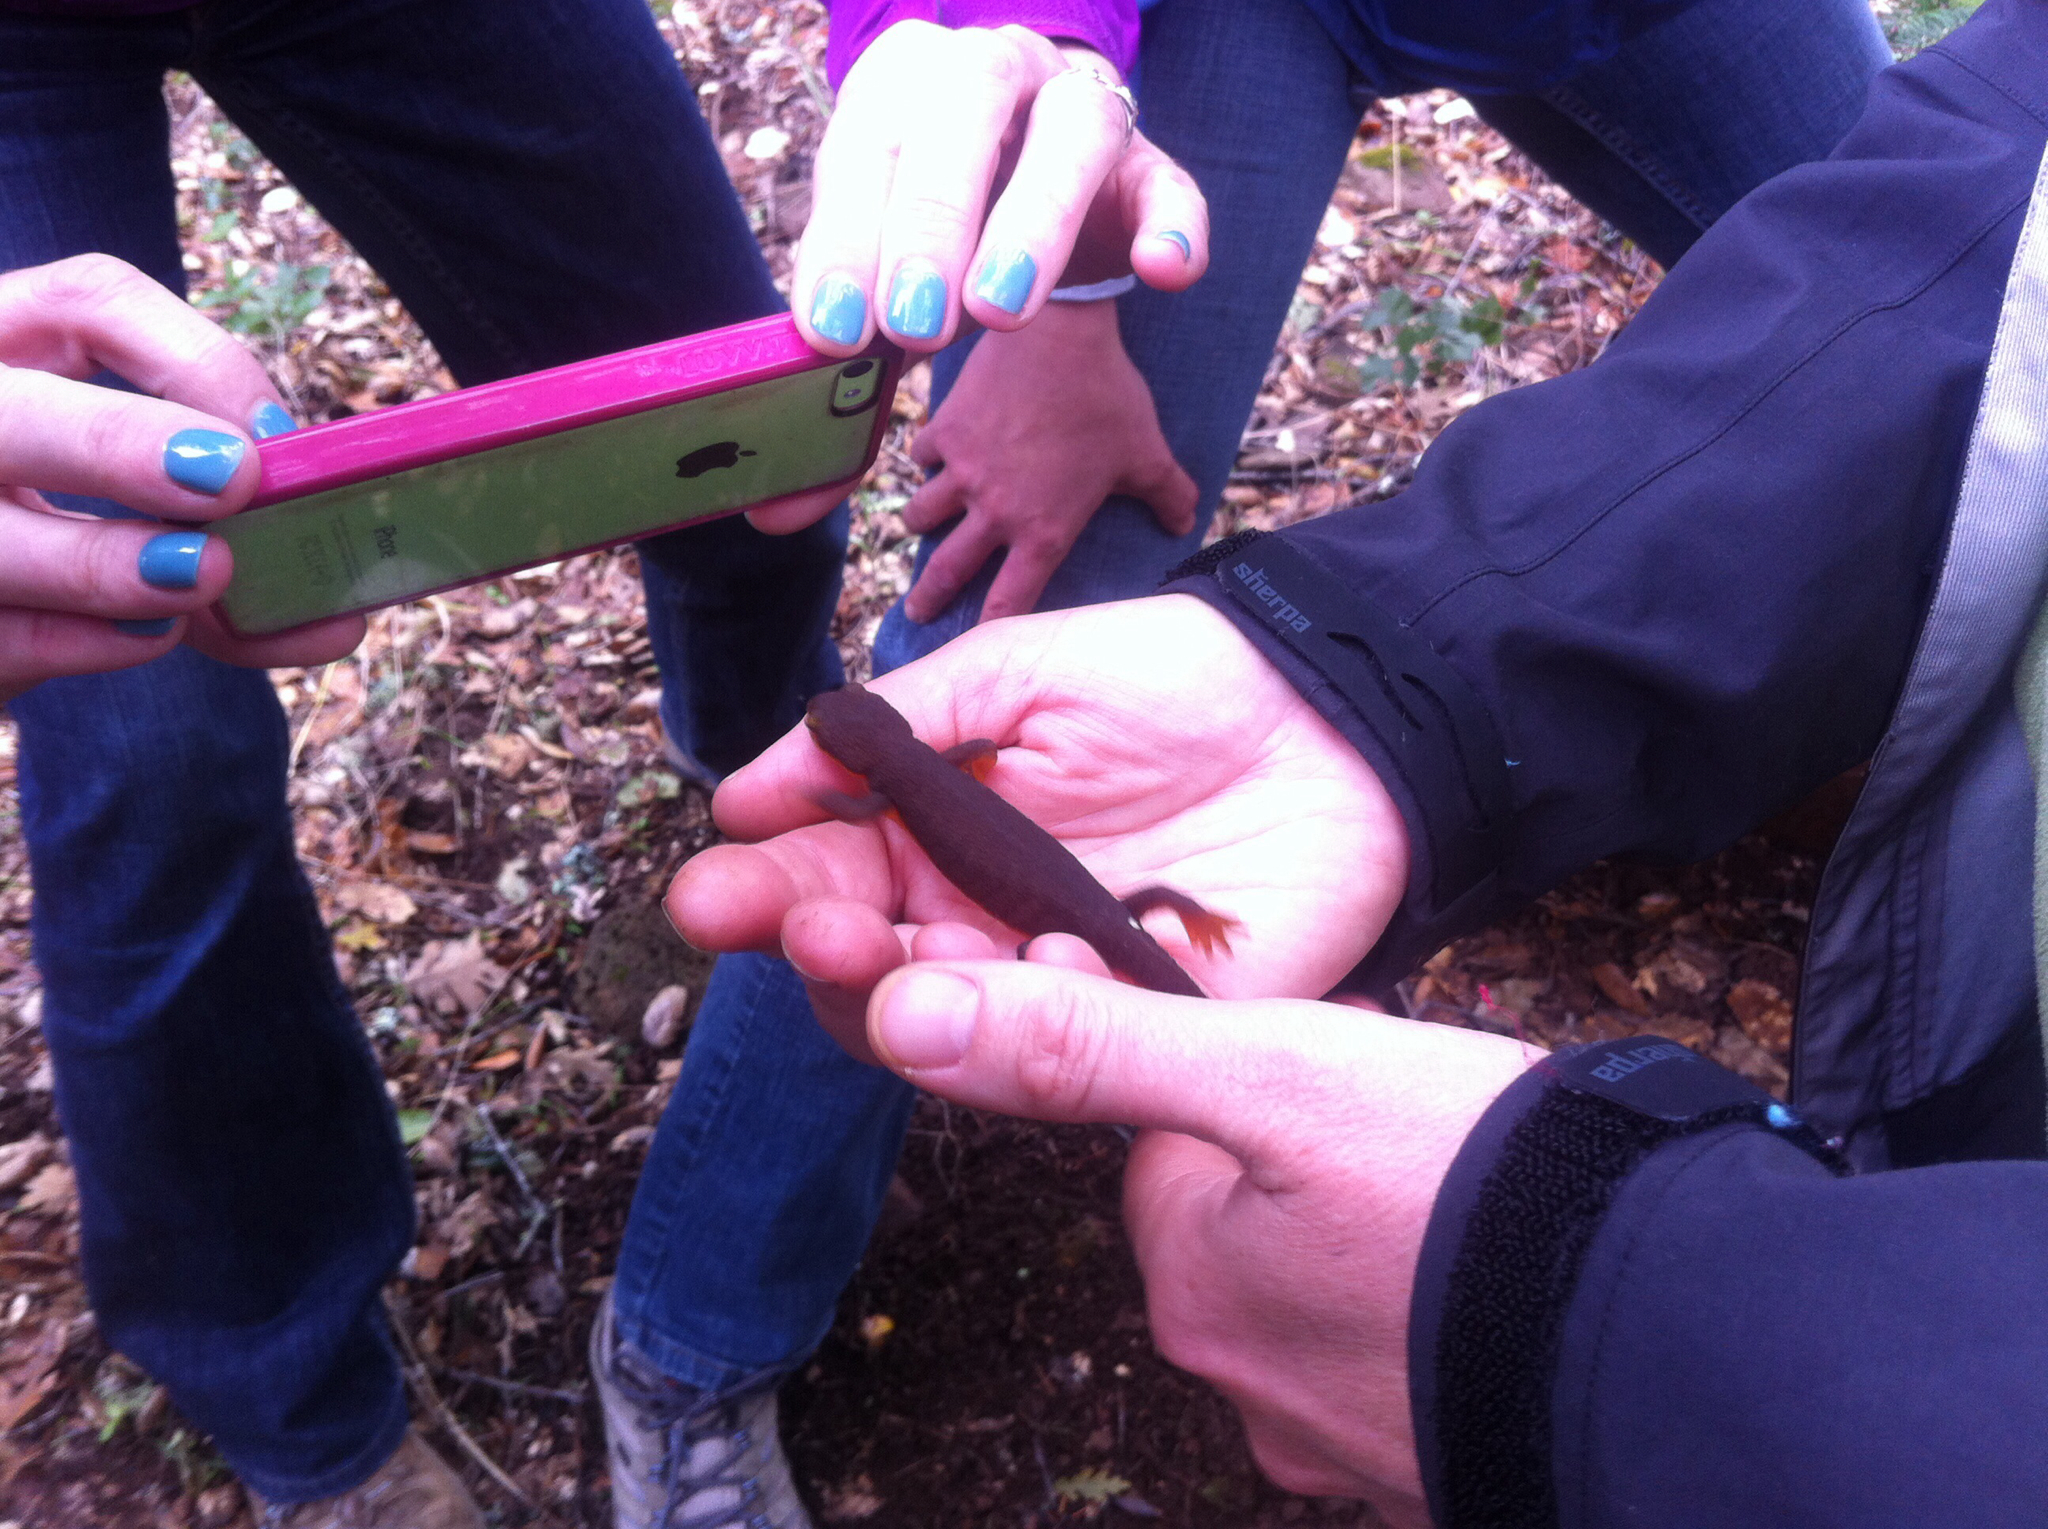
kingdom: Animalia
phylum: Chordata
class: Amphibia
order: Caudata
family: Salamandridae
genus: Taricha
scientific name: Taricha
